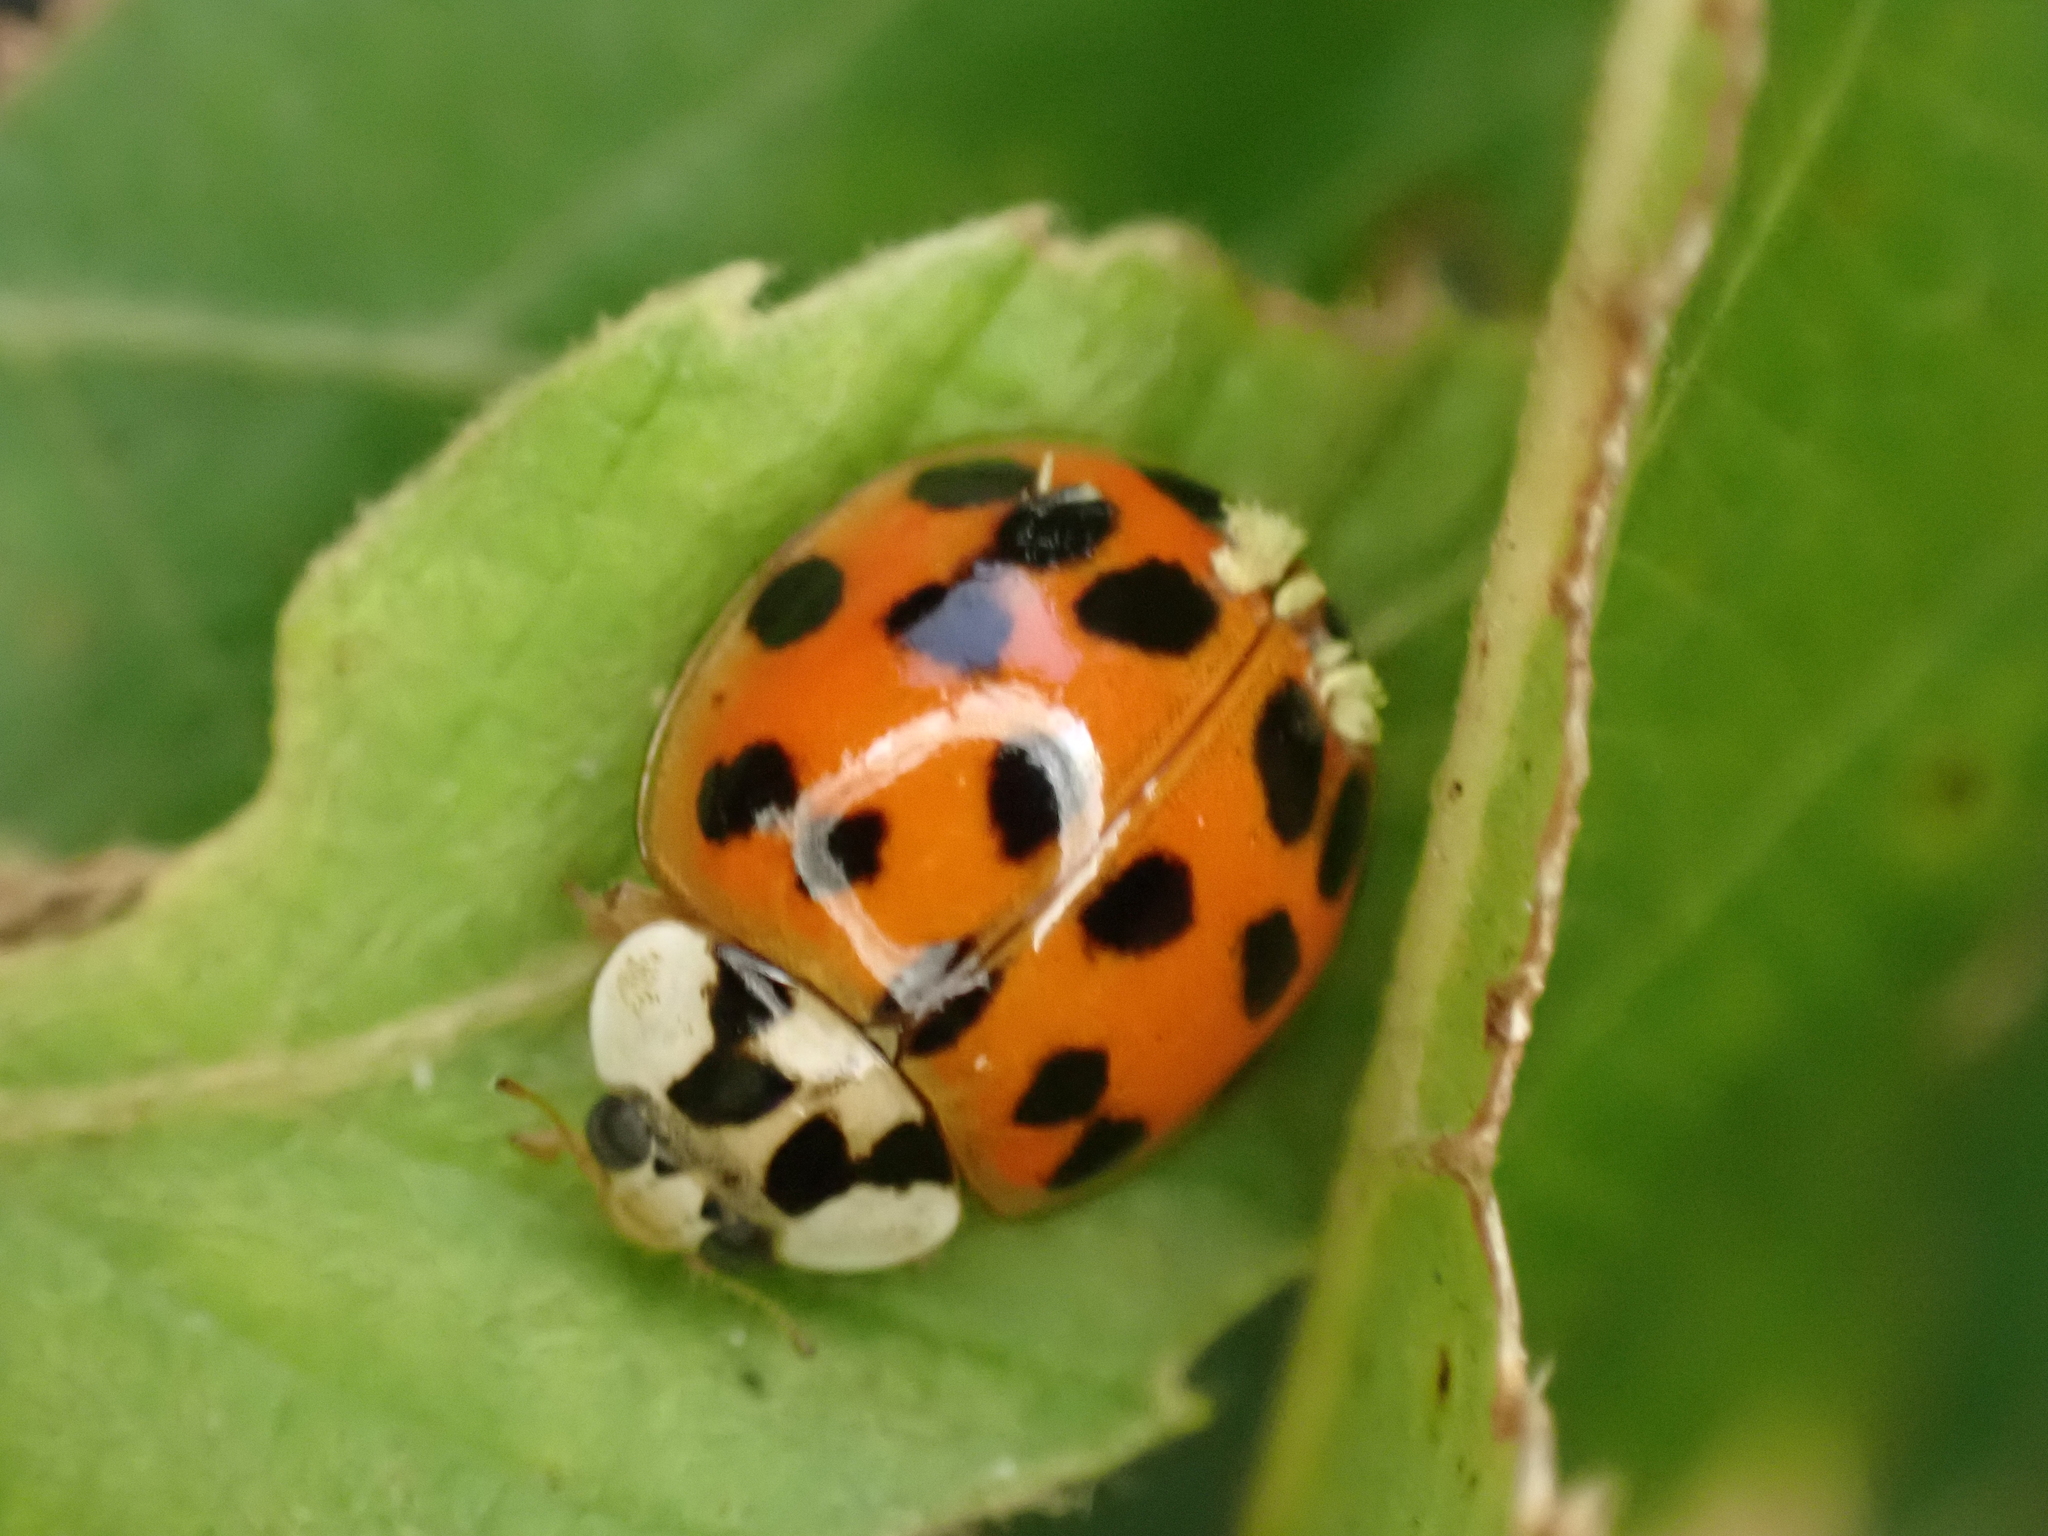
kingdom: Animalia
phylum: Arthropoda
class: Insecta
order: Coleoptera
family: Coccinellidae
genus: Harmonia
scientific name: Harmonia axyridis
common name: Harlequin ladybird
